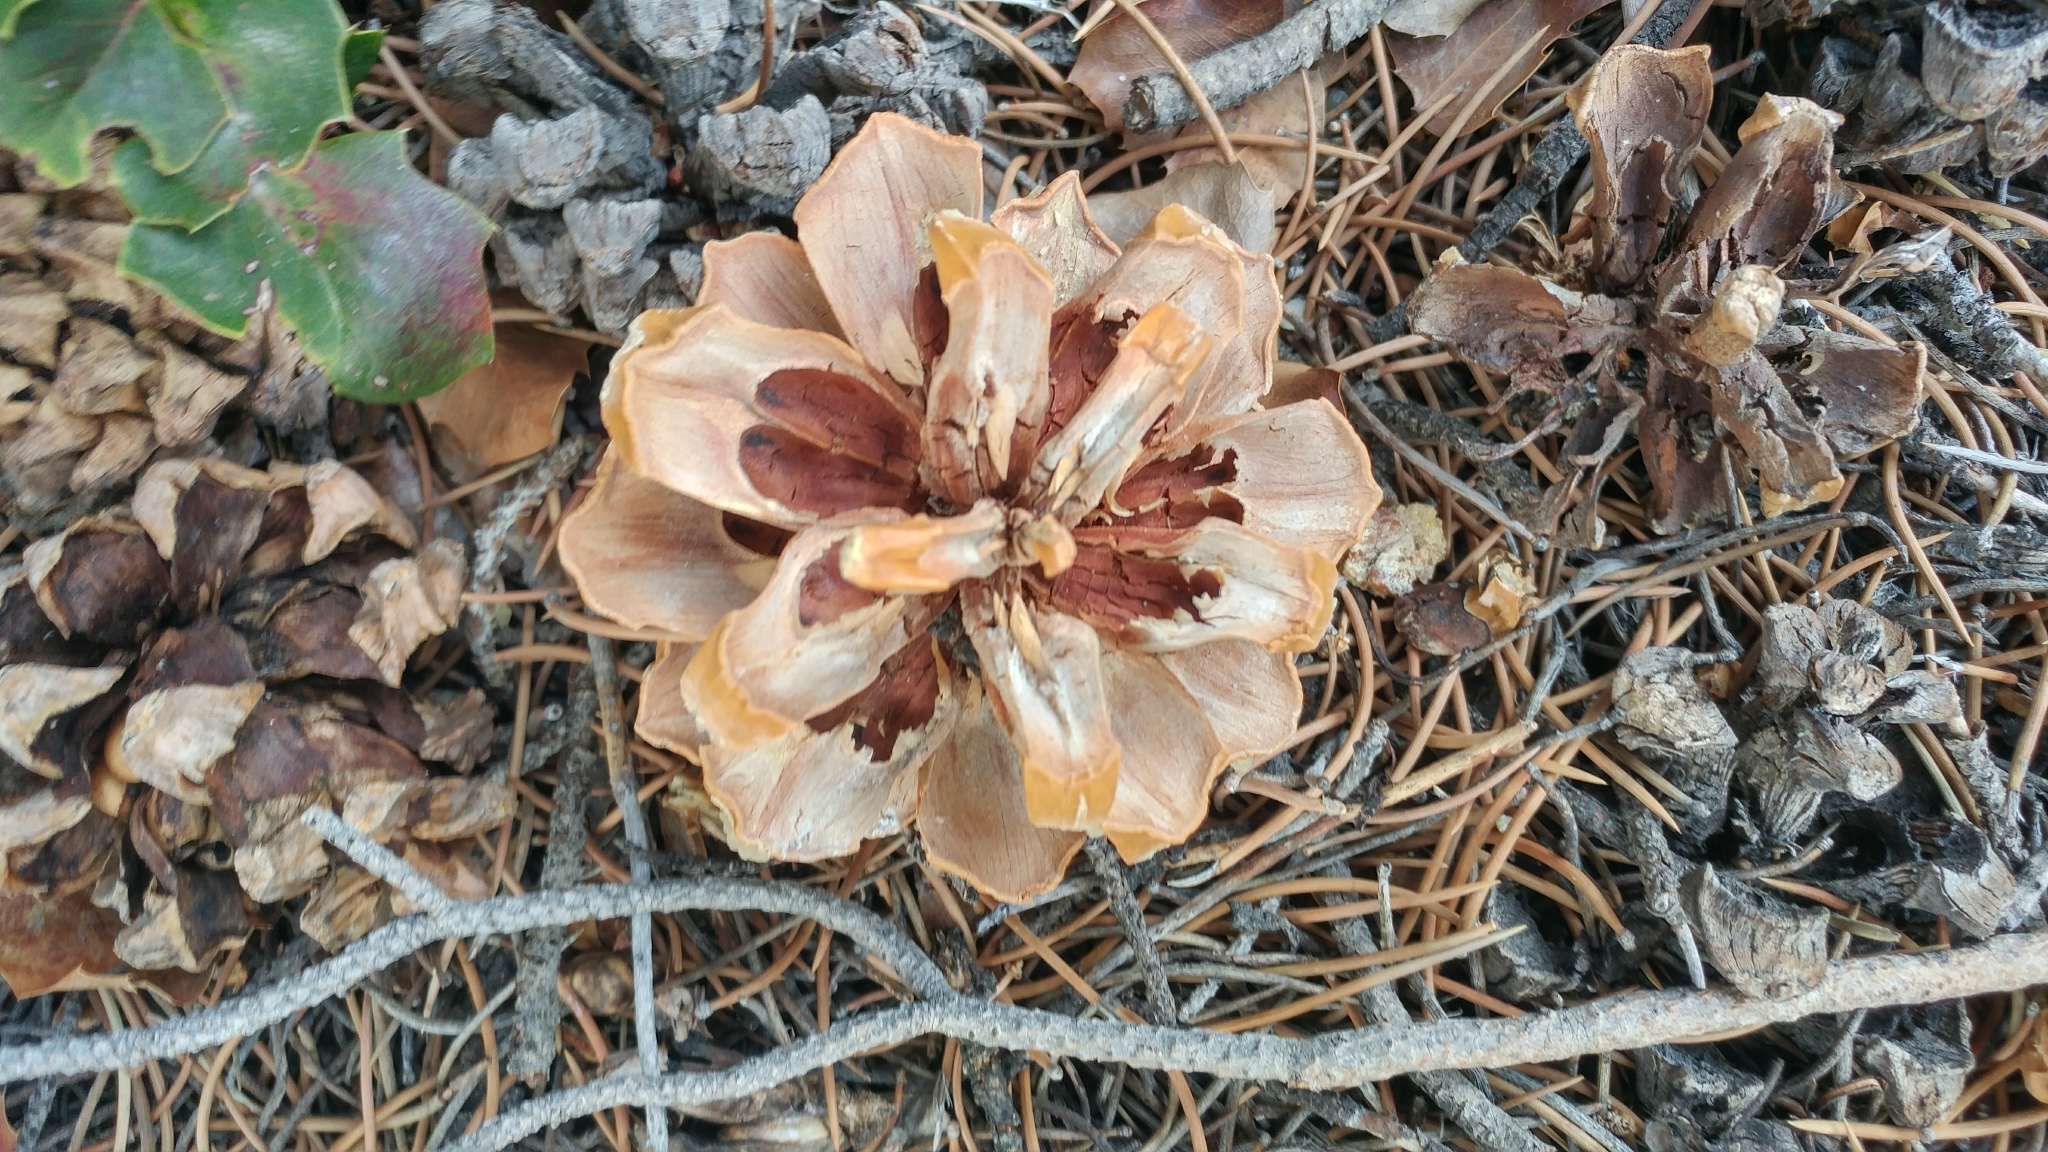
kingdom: Plantae
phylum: Tracheophyta
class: Pinopsida
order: Pinales
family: Pinaceae
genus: Pinus
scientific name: Pinus monophylla
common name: One-leaved nut pine
